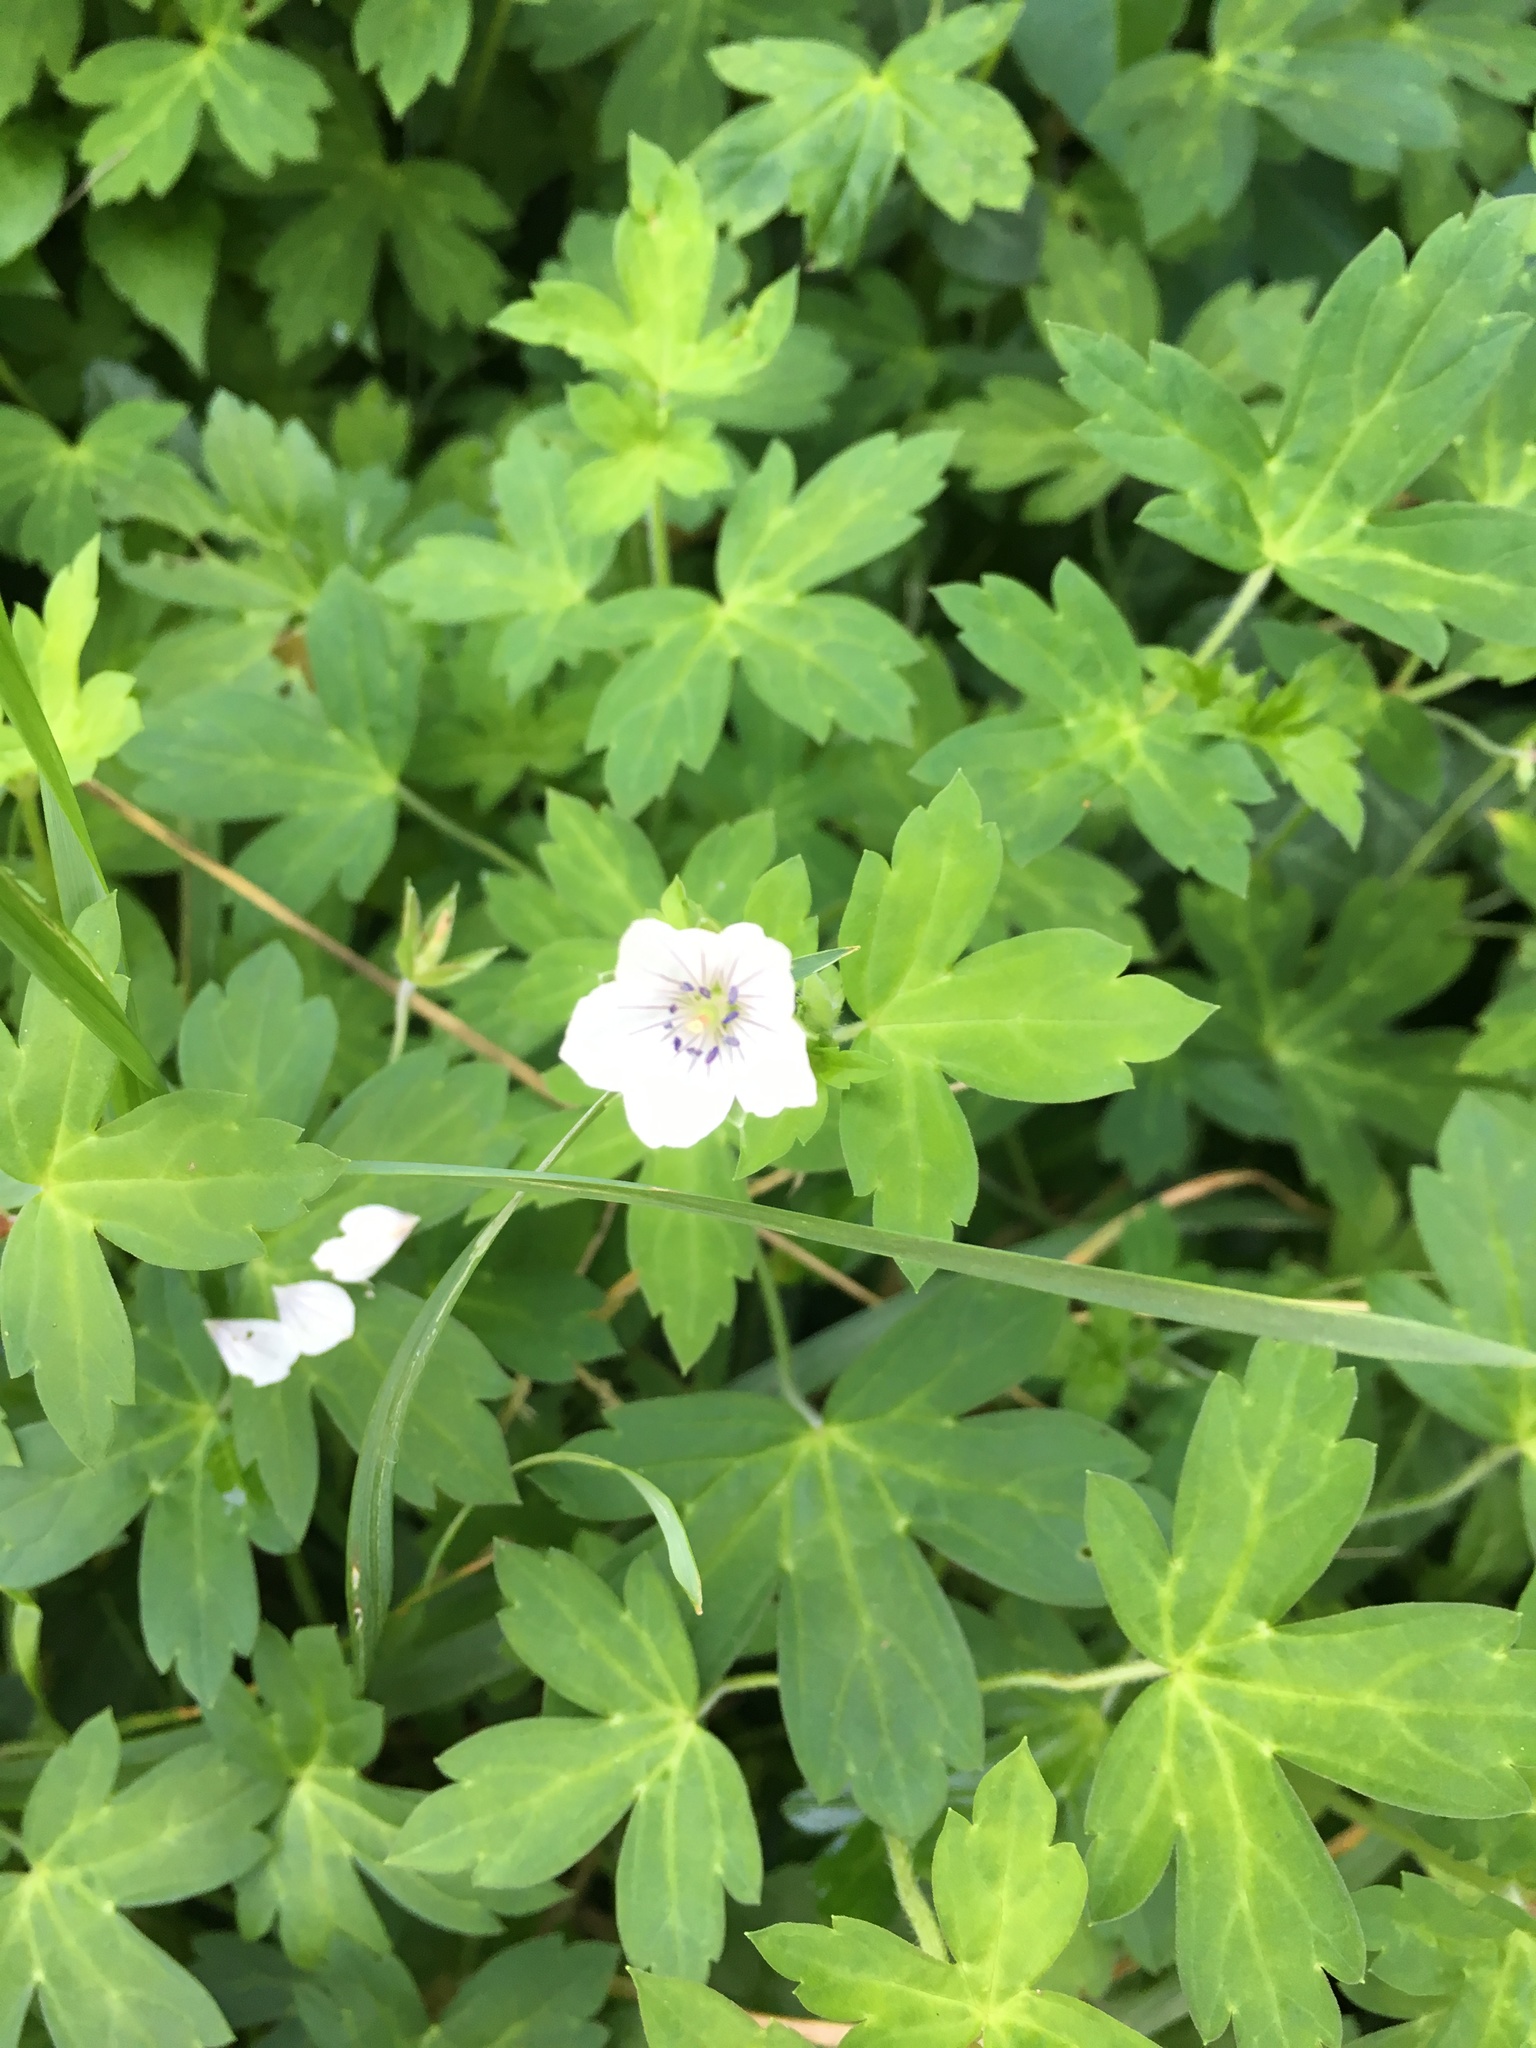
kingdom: Plantae
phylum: Tracheophyta
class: Magnoliopsida
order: Geraniales
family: Geraniaceae
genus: Geranium
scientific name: Geranium thunbergii
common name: Dewdrop crane's-bill
